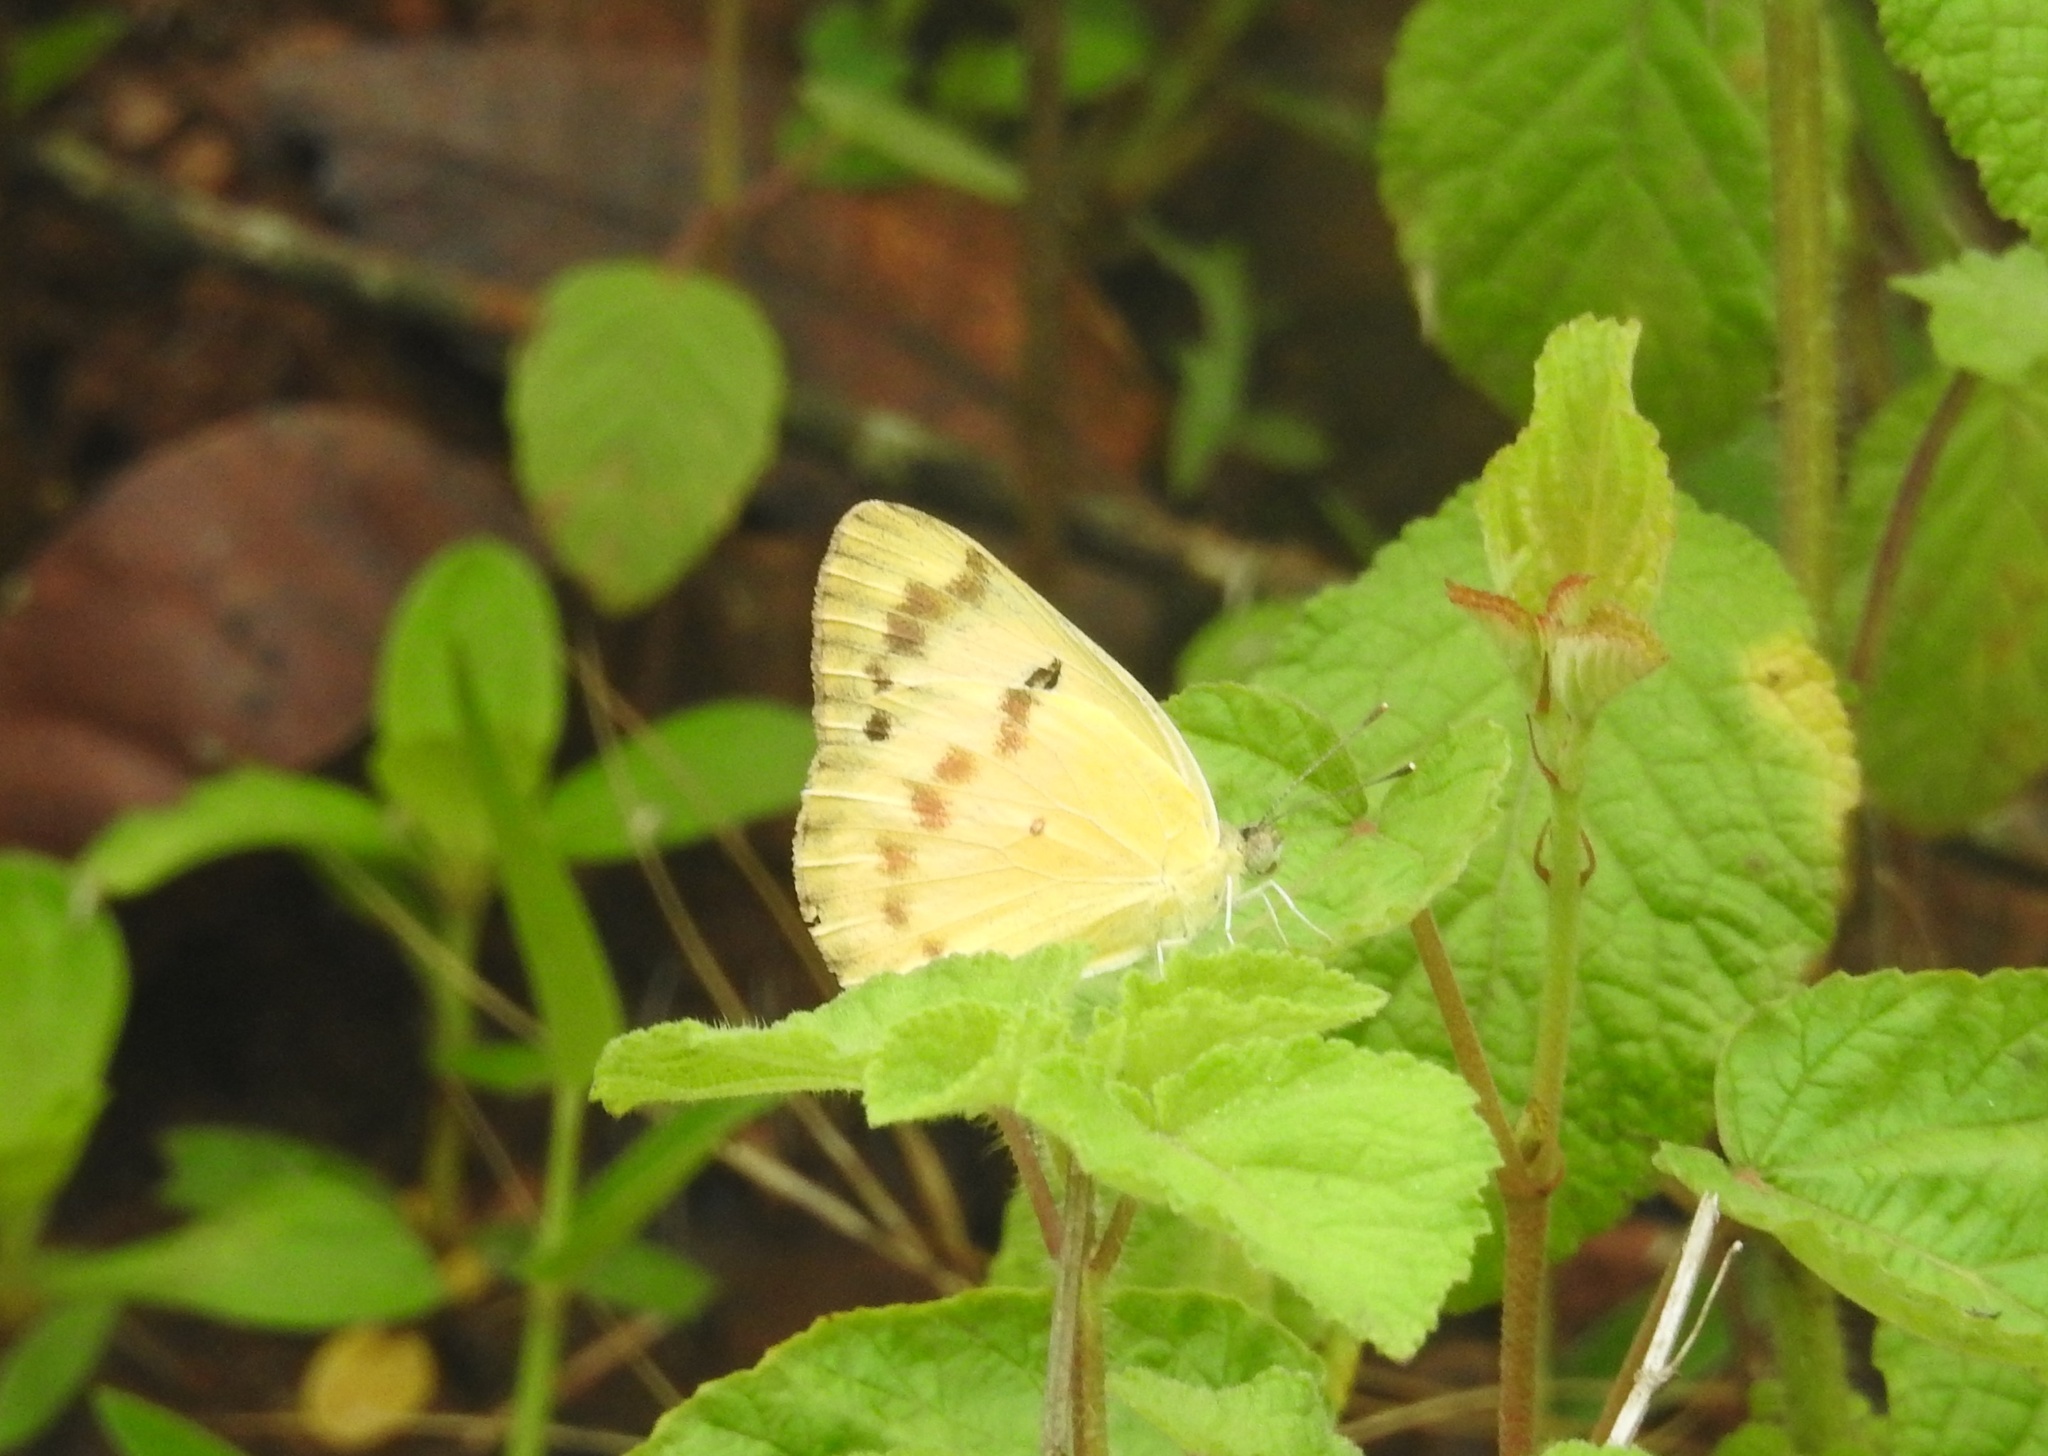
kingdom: Animalia
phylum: Arthropoda
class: Insecta
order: Lepidoptera
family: Pieridae
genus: Colotis
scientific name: Colotis fausta
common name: Large salmon arab
